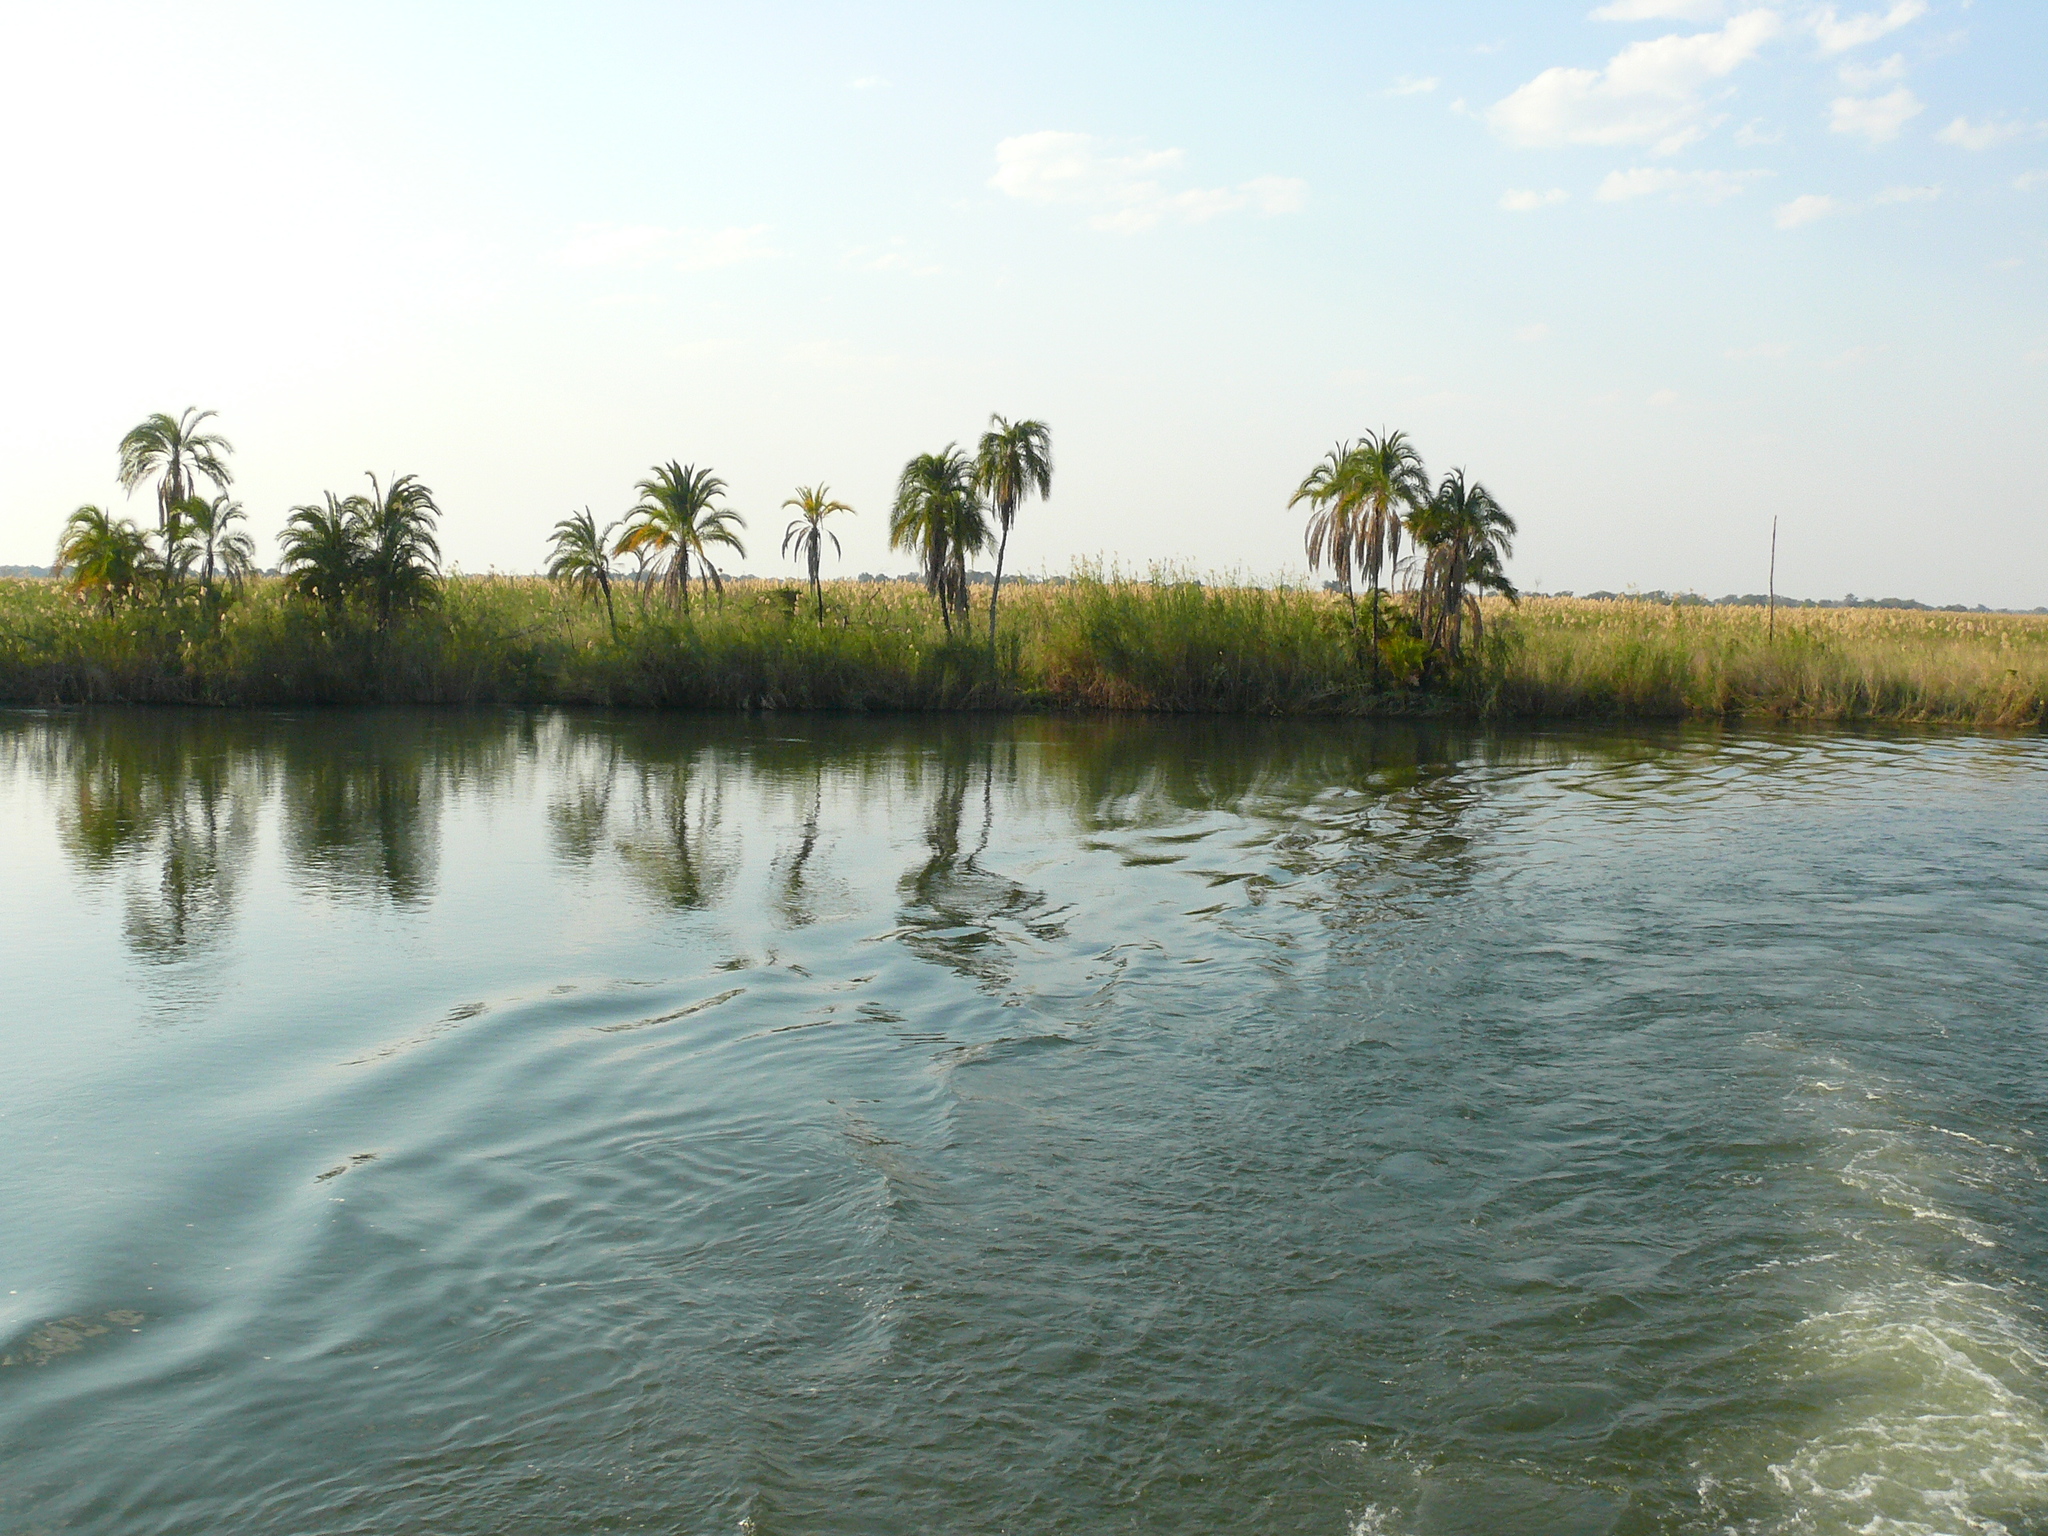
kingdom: Plantae
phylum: Tracheophyta
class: Liliopsida
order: Arecales
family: Arecaceae
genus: Phoenix
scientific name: Phoenix reclinata
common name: Senegal date palm
